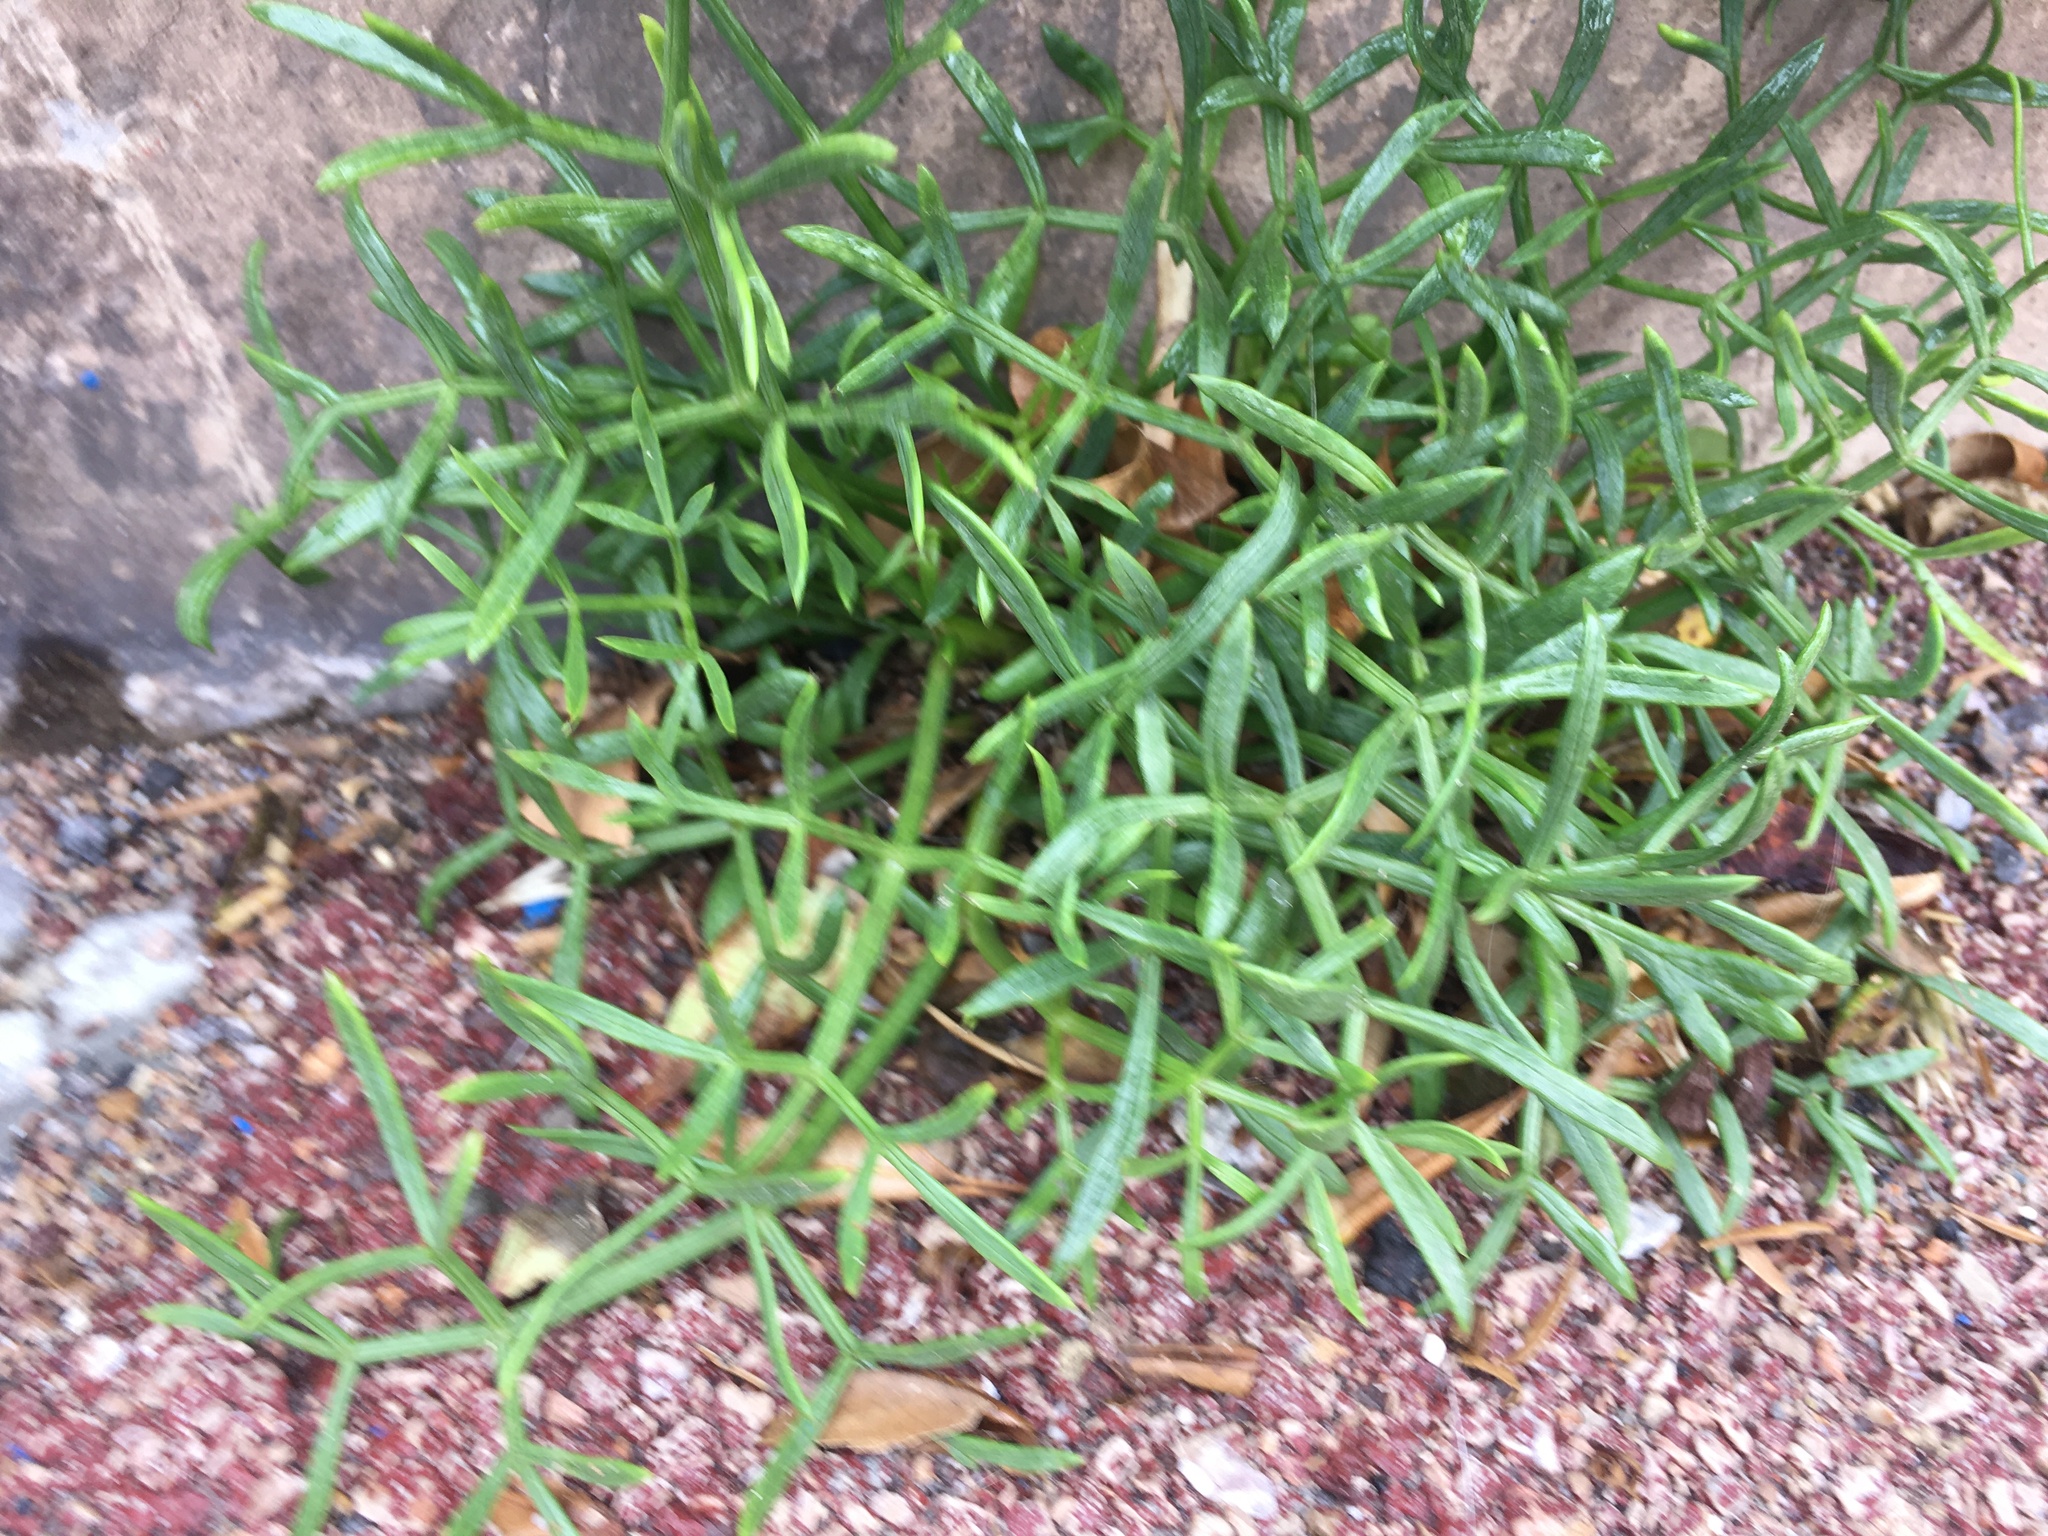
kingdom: Plantae
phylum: Tracheophyta
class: Magnoliopsida
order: Apiales
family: Apiaceae
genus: Crithmum
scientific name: Crithmum maritimum
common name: Rock samphire
